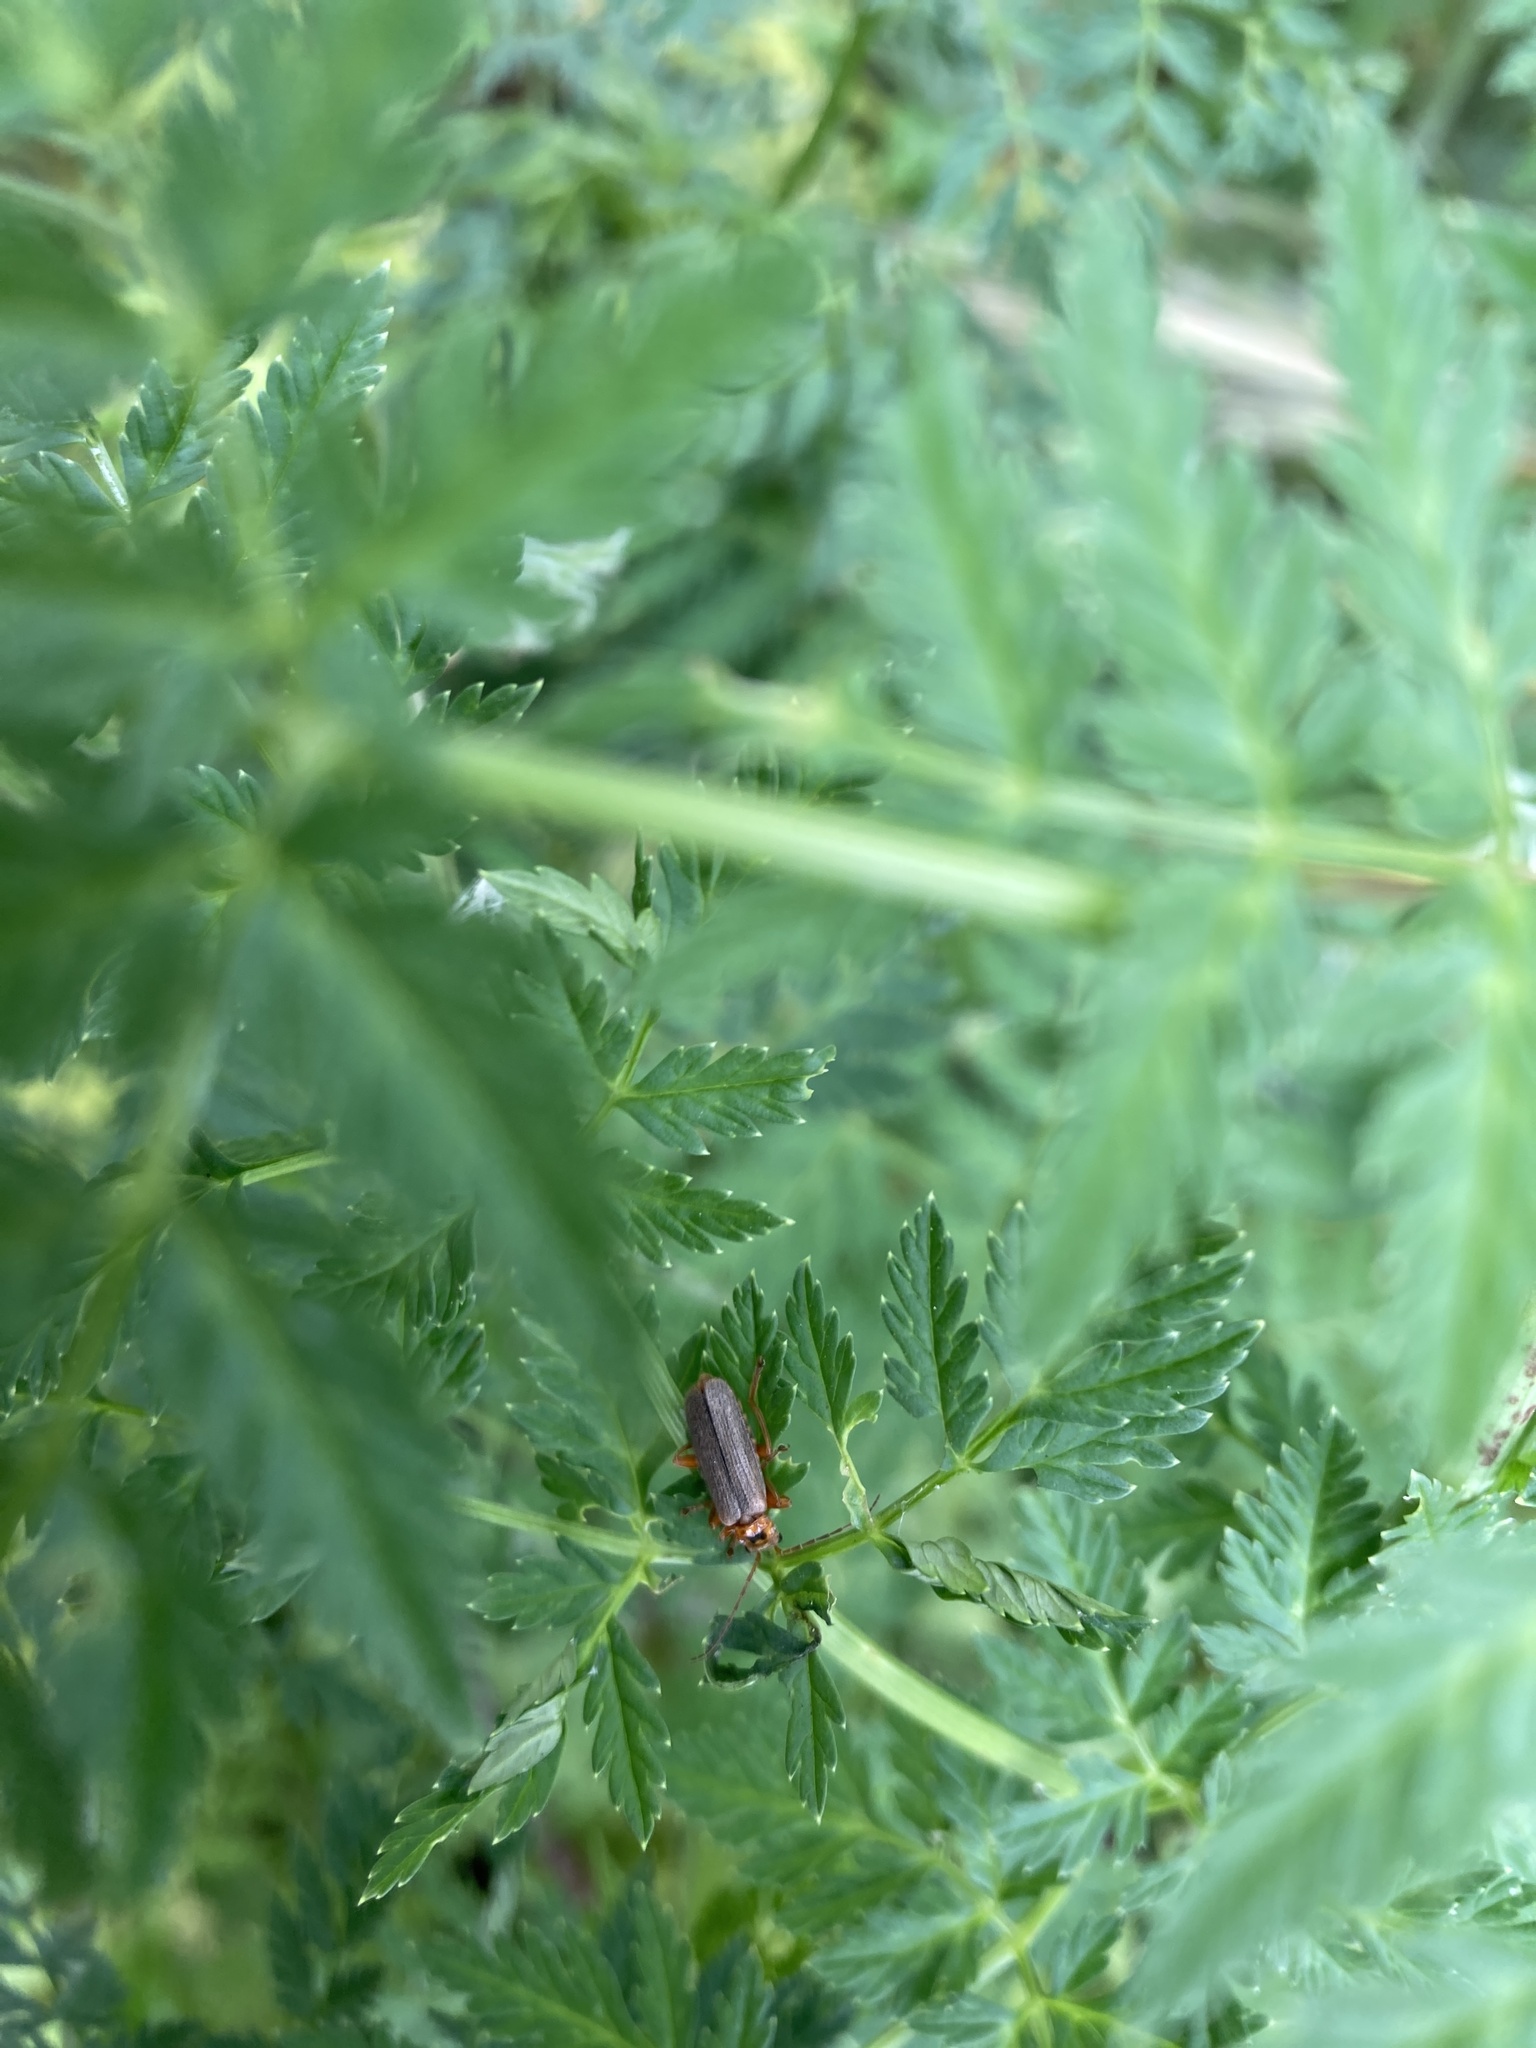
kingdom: Animalia
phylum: Arthropoda
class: Insecta
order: Coleoptera
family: Cantharidae
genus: Cultellunguis
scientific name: Cultellunguis americanus
